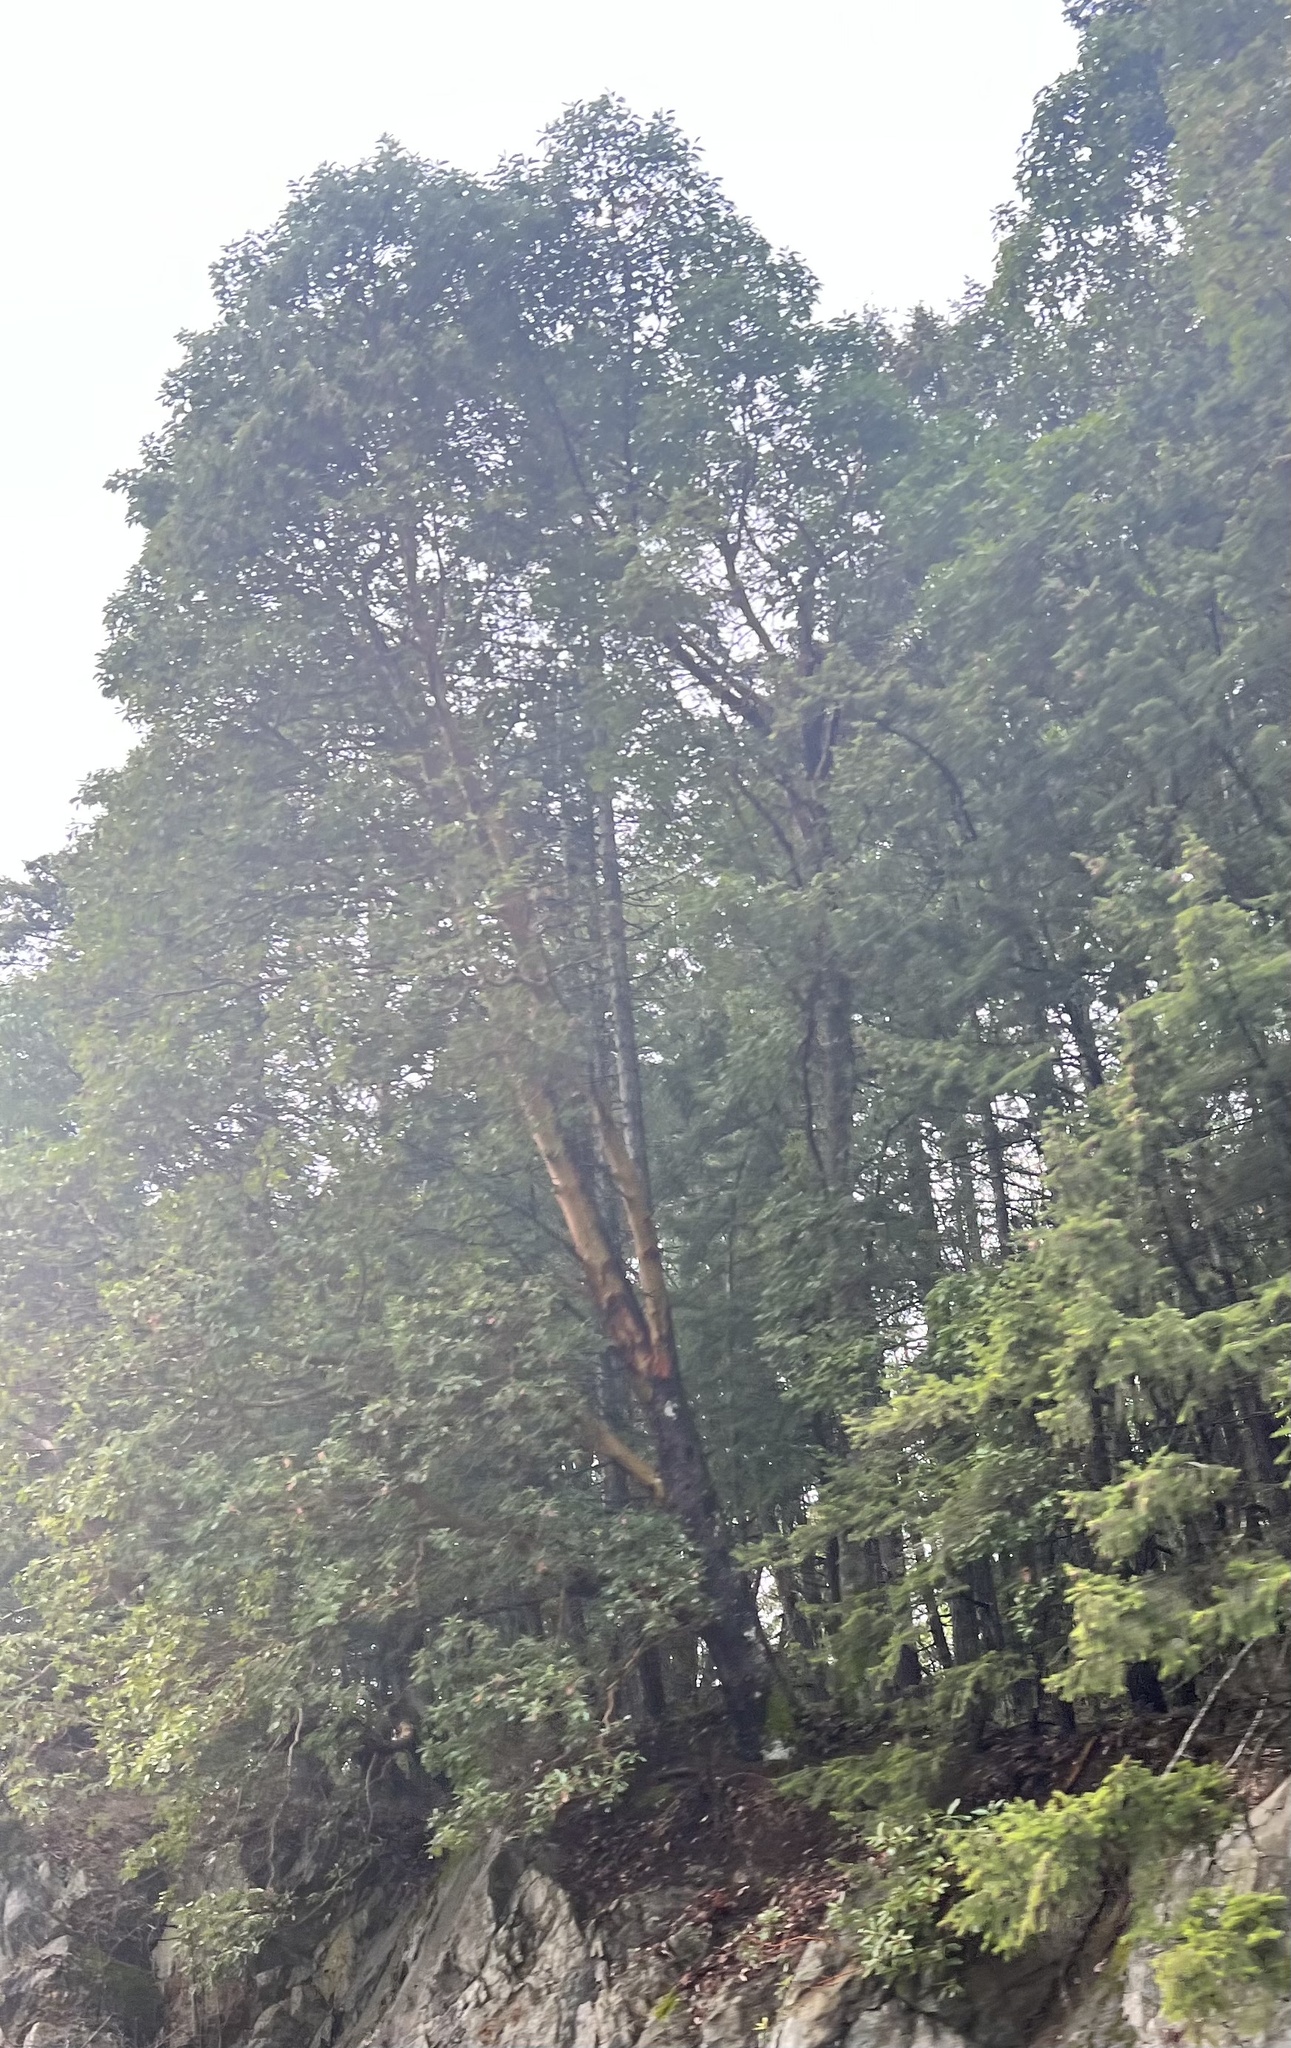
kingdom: Plantae
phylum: Tracheophyta
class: Magnoliopsida
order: Ericales
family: Ericaceae
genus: Arbutus
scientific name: Arbutus menziesii
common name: Pacific madrone
